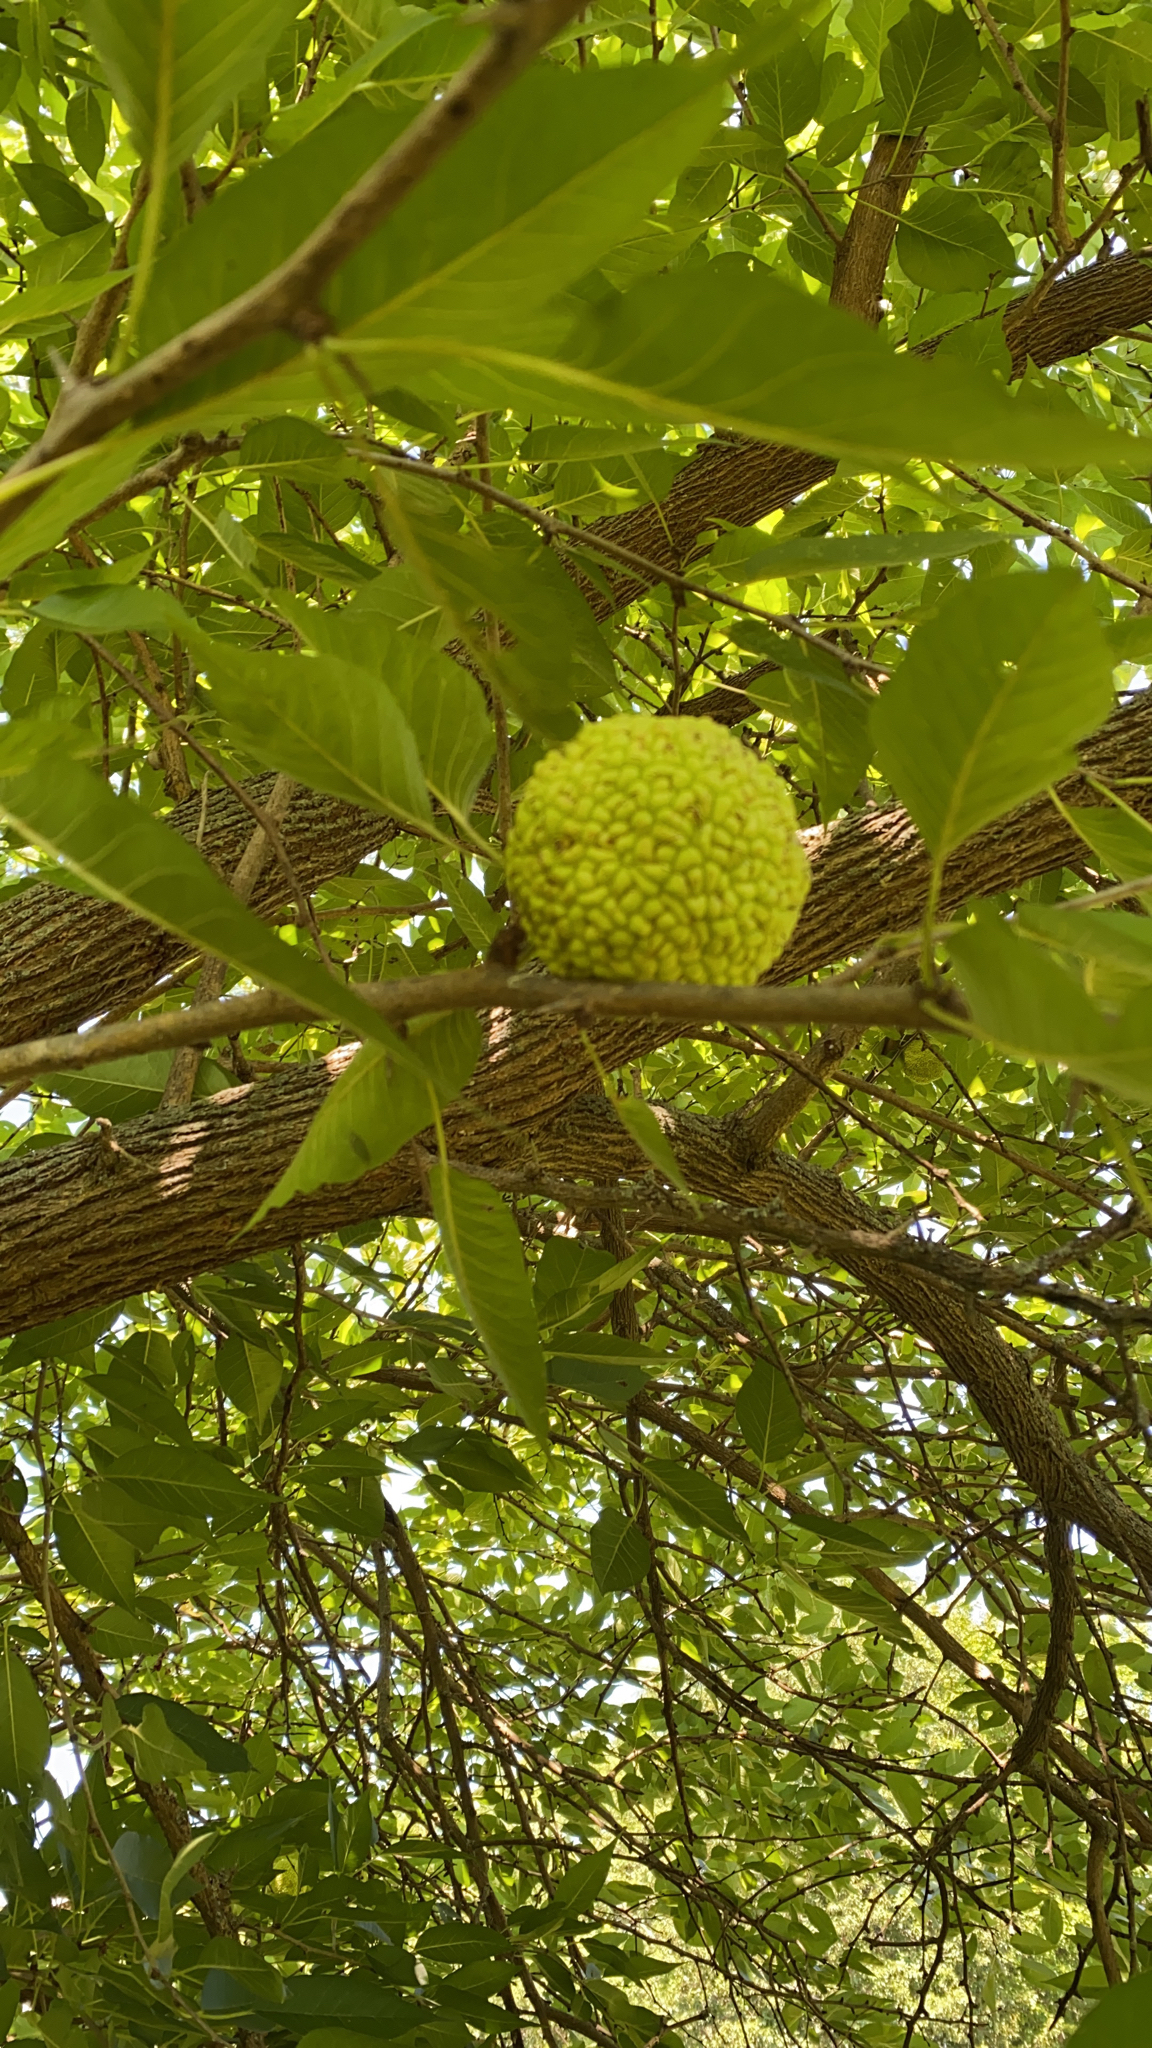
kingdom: Plantae
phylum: Tracheophyta
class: Magnoliopsida
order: Rosales
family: Moraceae
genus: Maclura
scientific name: Maclura pomifera
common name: Osage-orange
